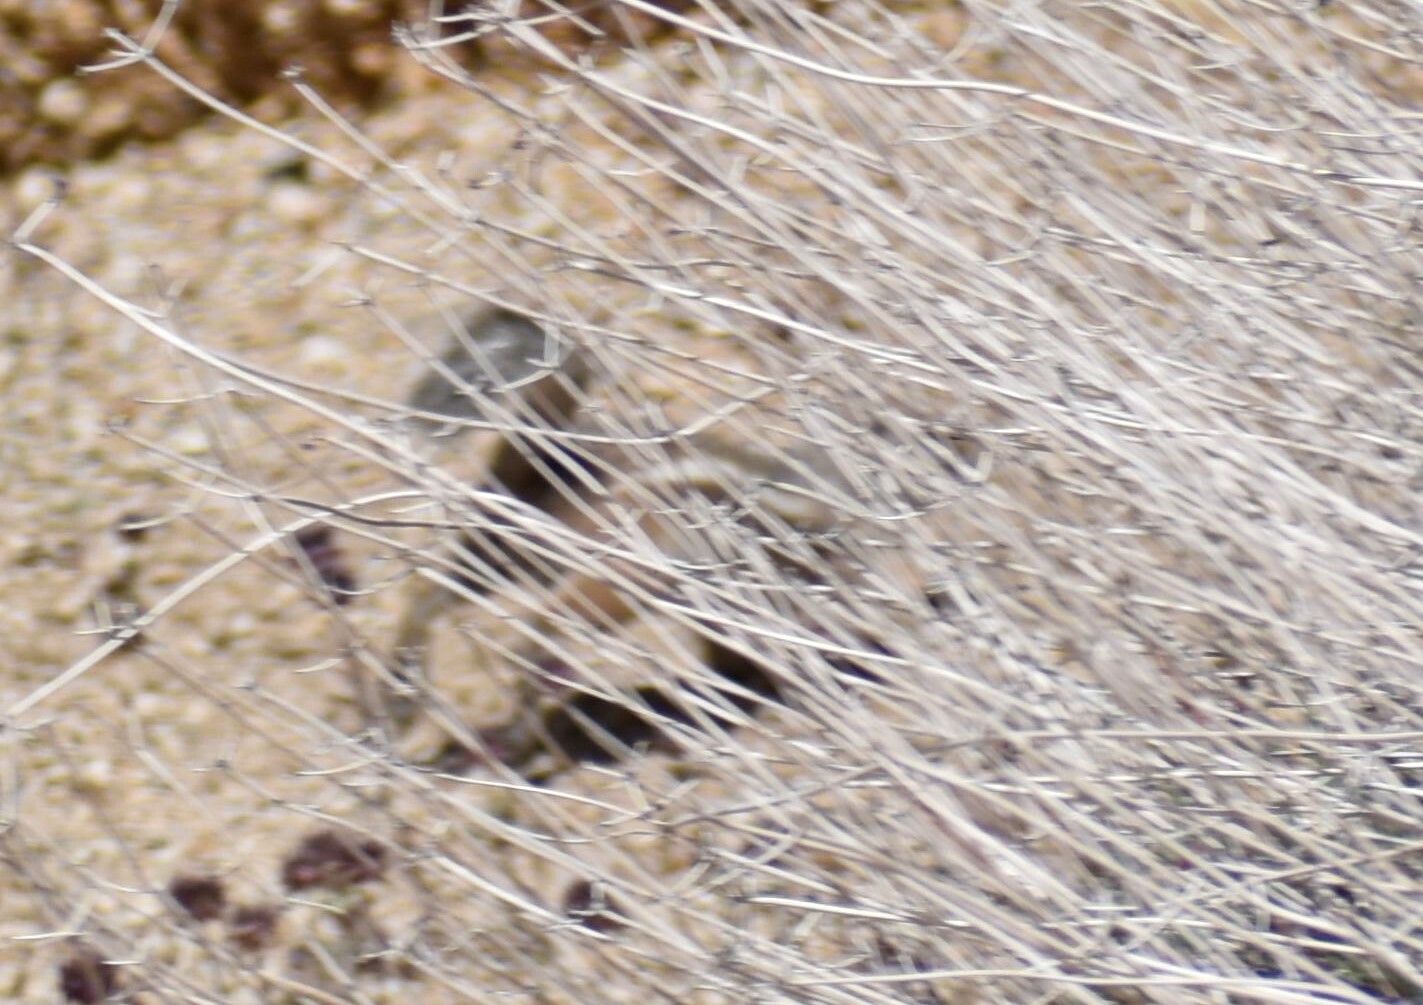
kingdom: Animalia
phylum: Chordata
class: Mammalia
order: Rodentia
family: Sciuridae
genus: Ammospermophilus
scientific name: Ammospermophilus leucurus
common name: White-tailed antelope squirrel
